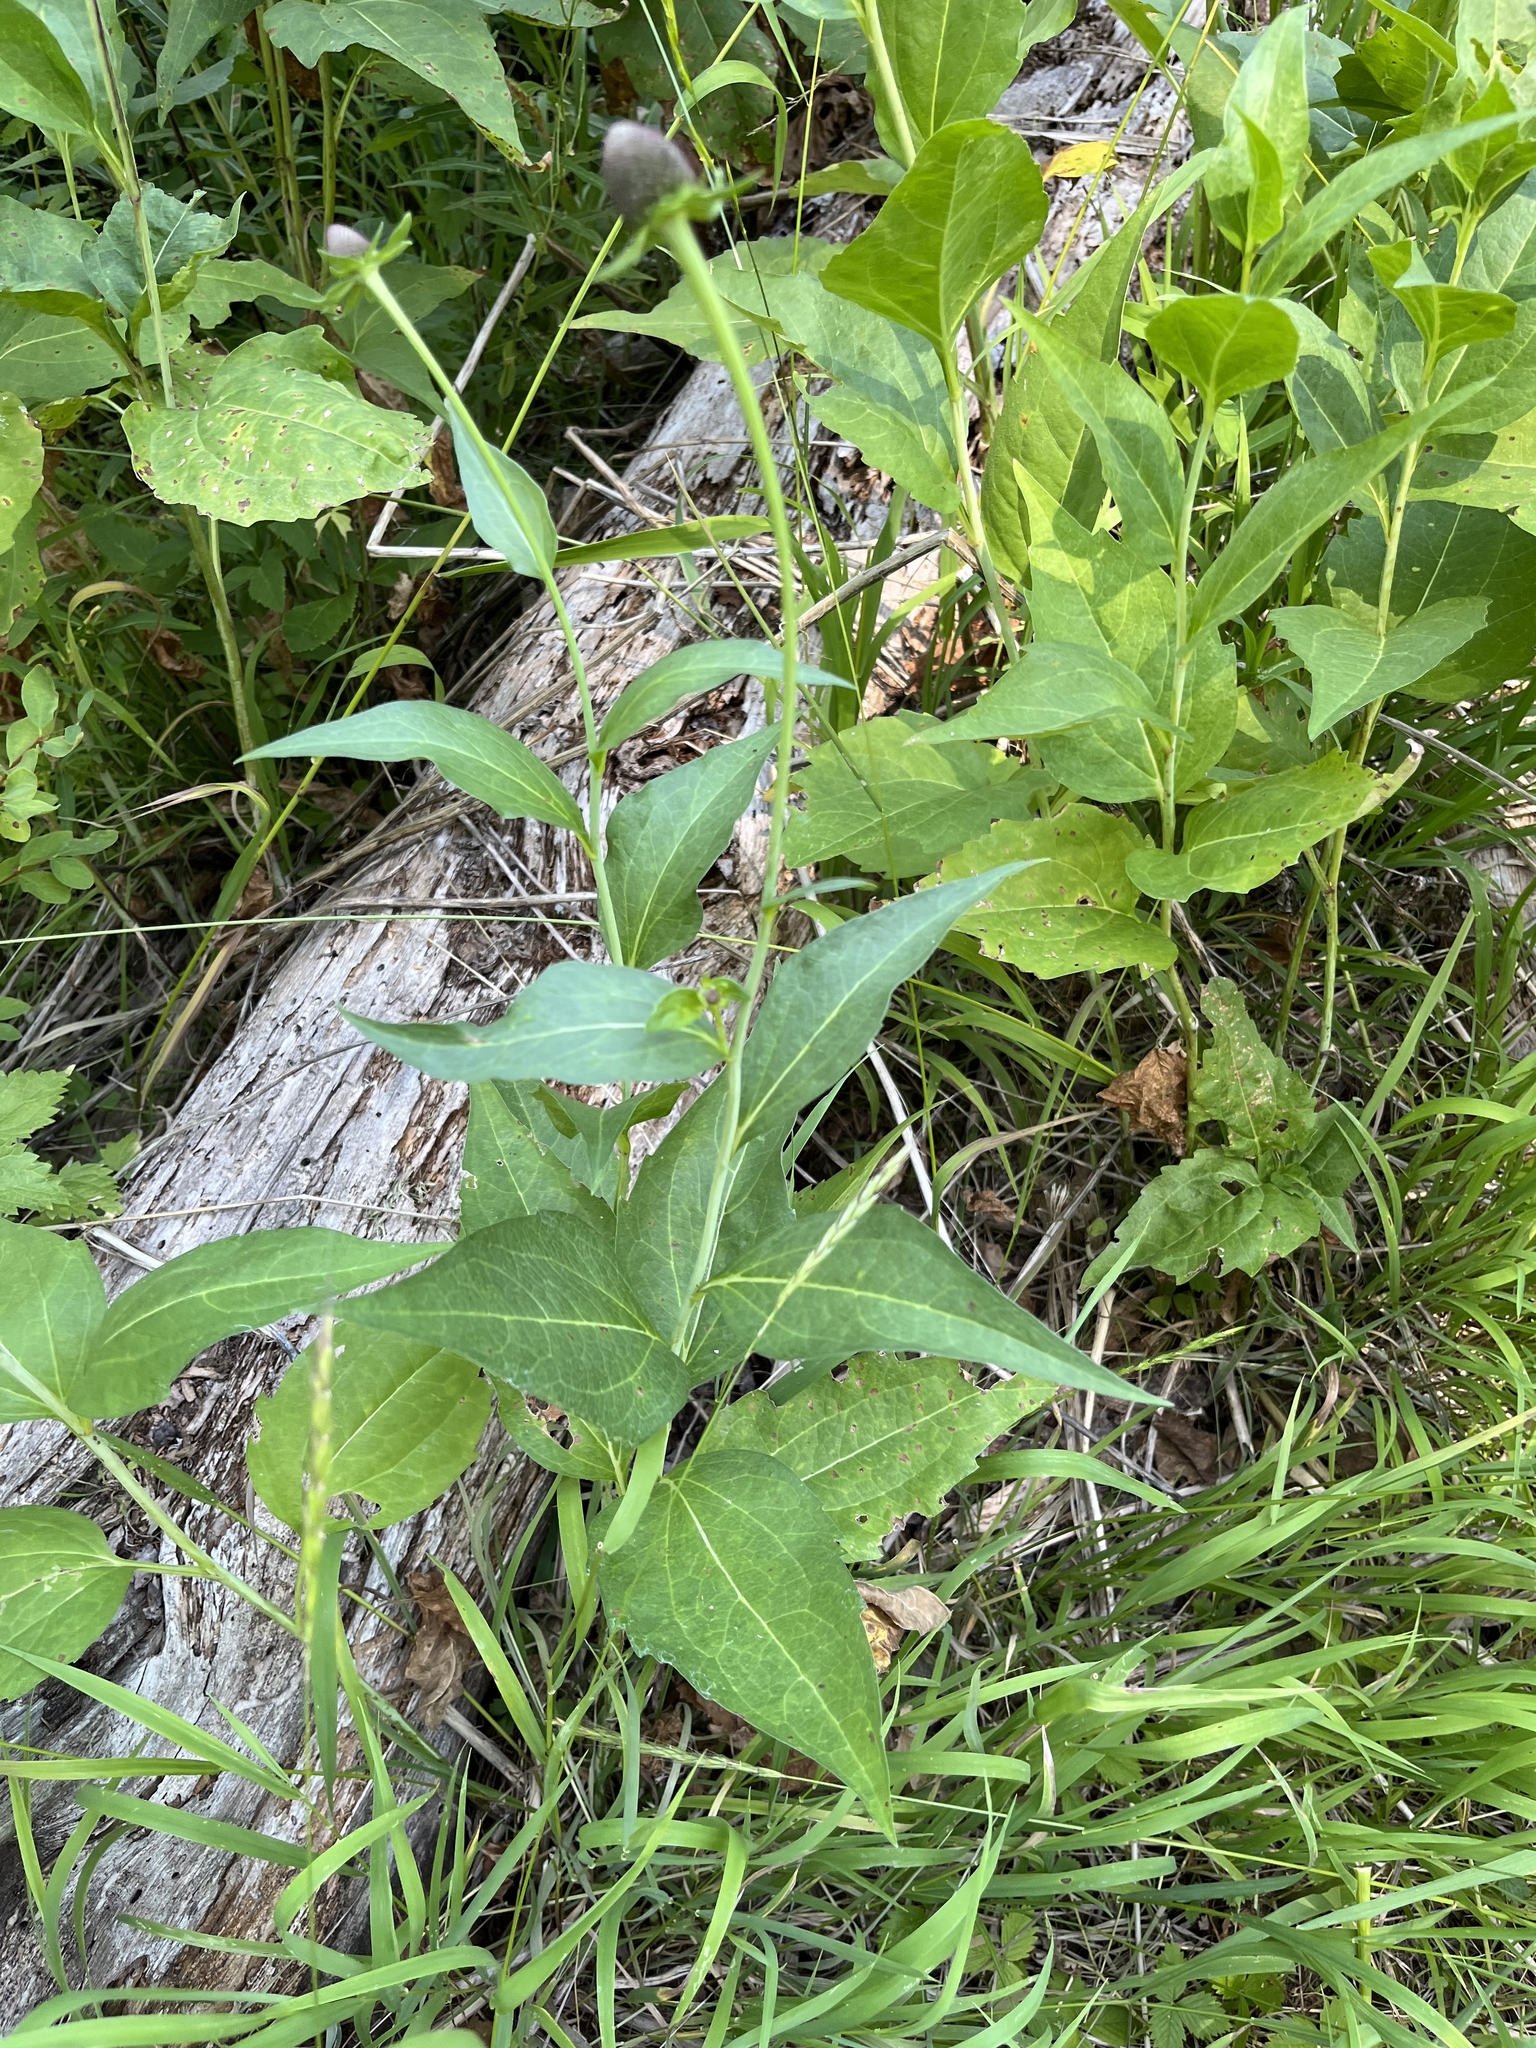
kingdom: Plantae
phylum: Tracheophyta
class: Magnoliopsida
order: Asterales
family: Asteraceae
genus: Rudbeckia
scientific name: Rudbeckia occidentalis
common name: Western coneflower
